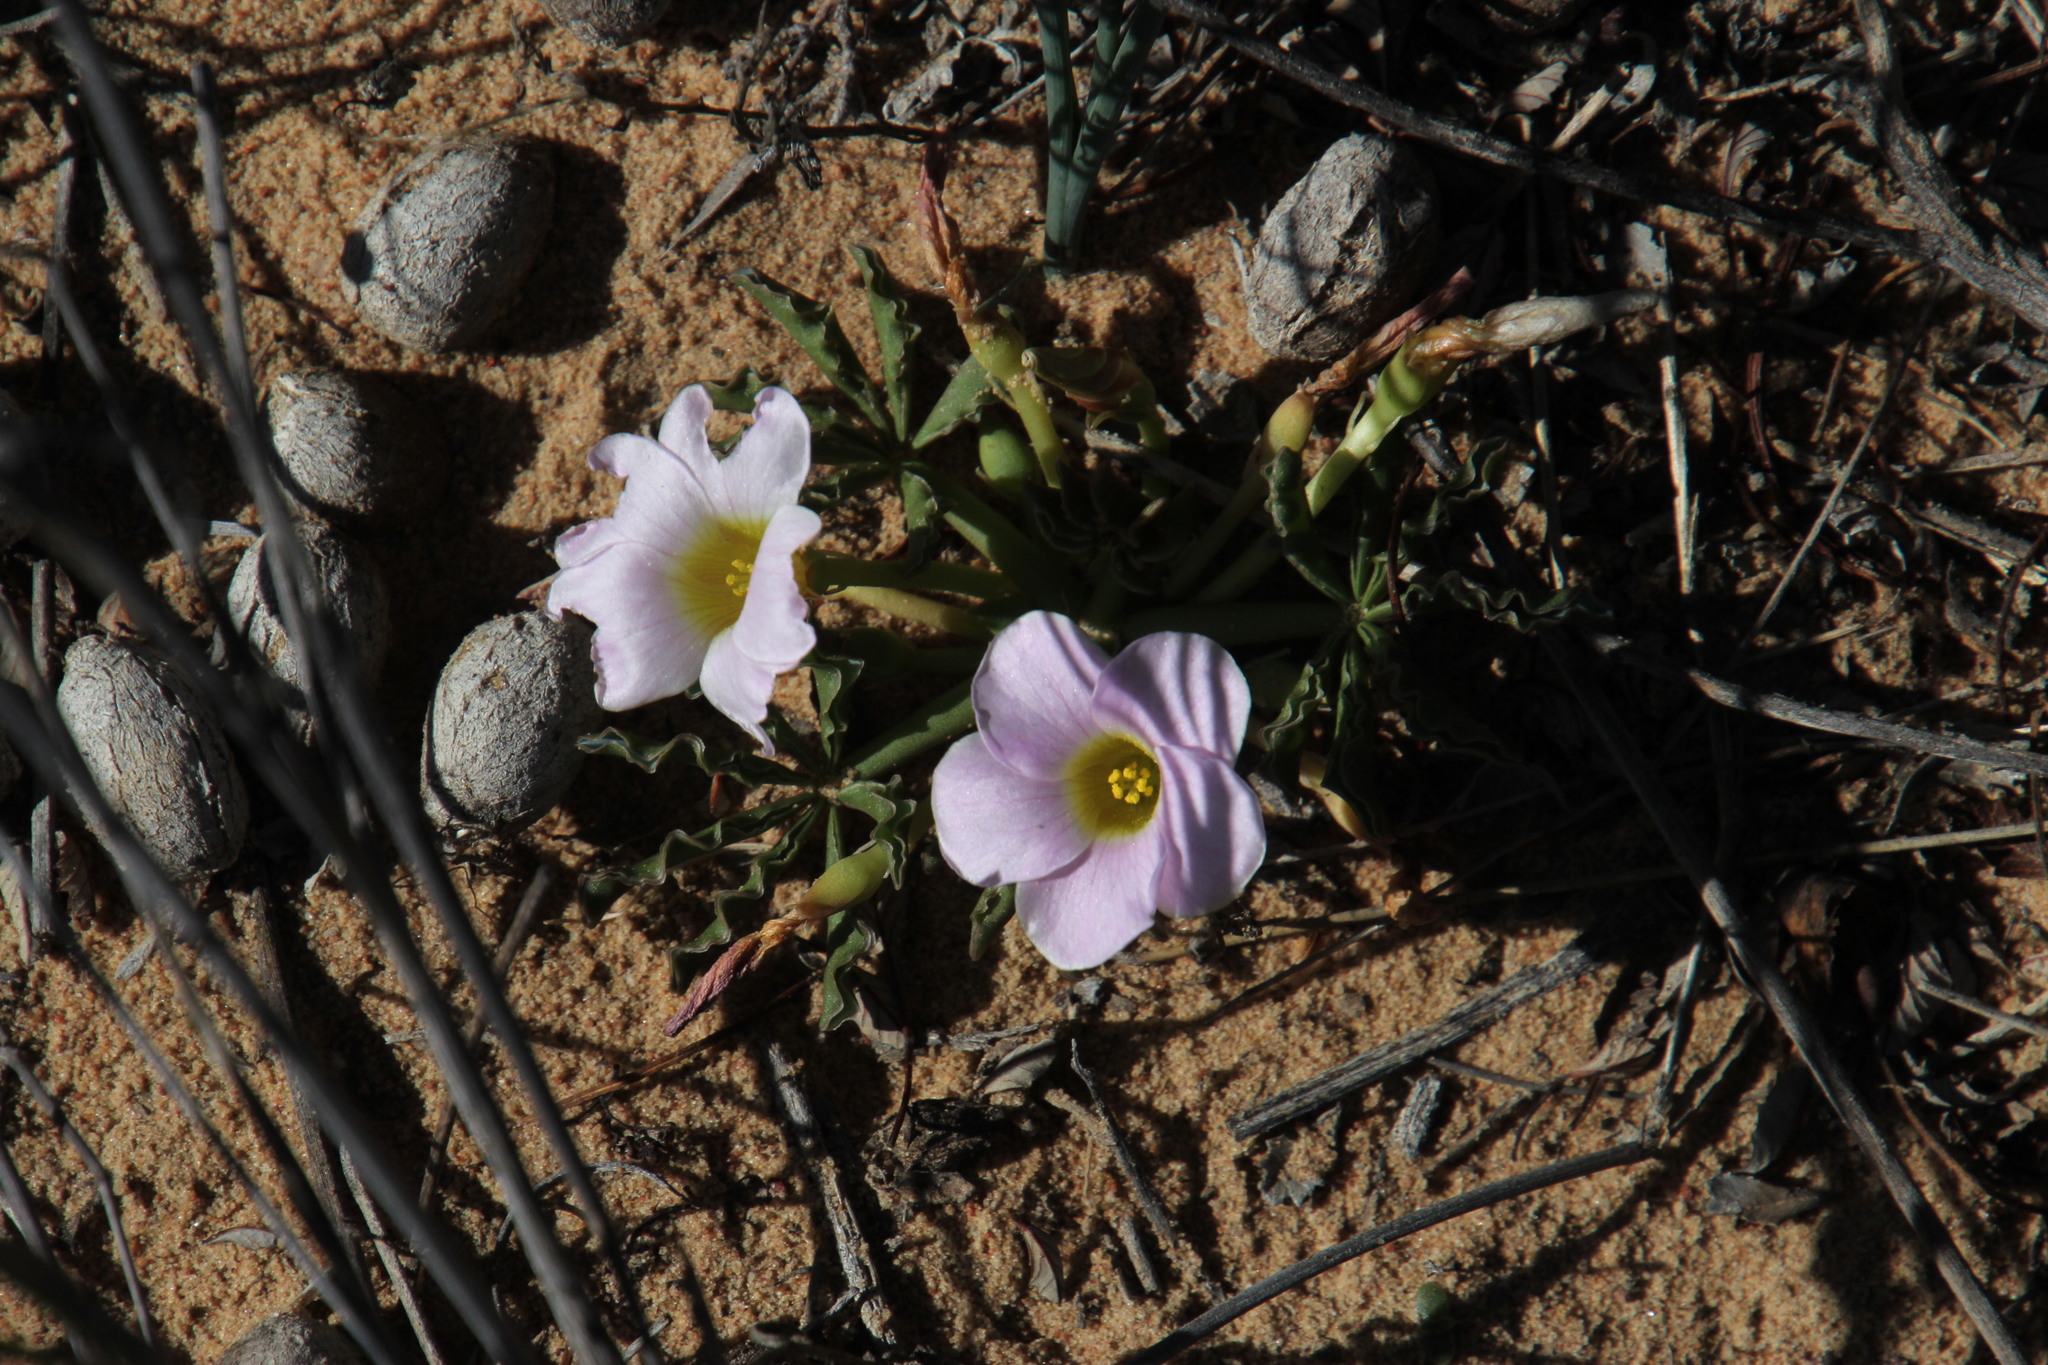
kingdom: Plantae
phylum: Tracheophyta
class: Magnoliopsida
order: Oxalidales
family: Oxalidaceae
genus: Oxalis
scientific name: Oxalis flava
